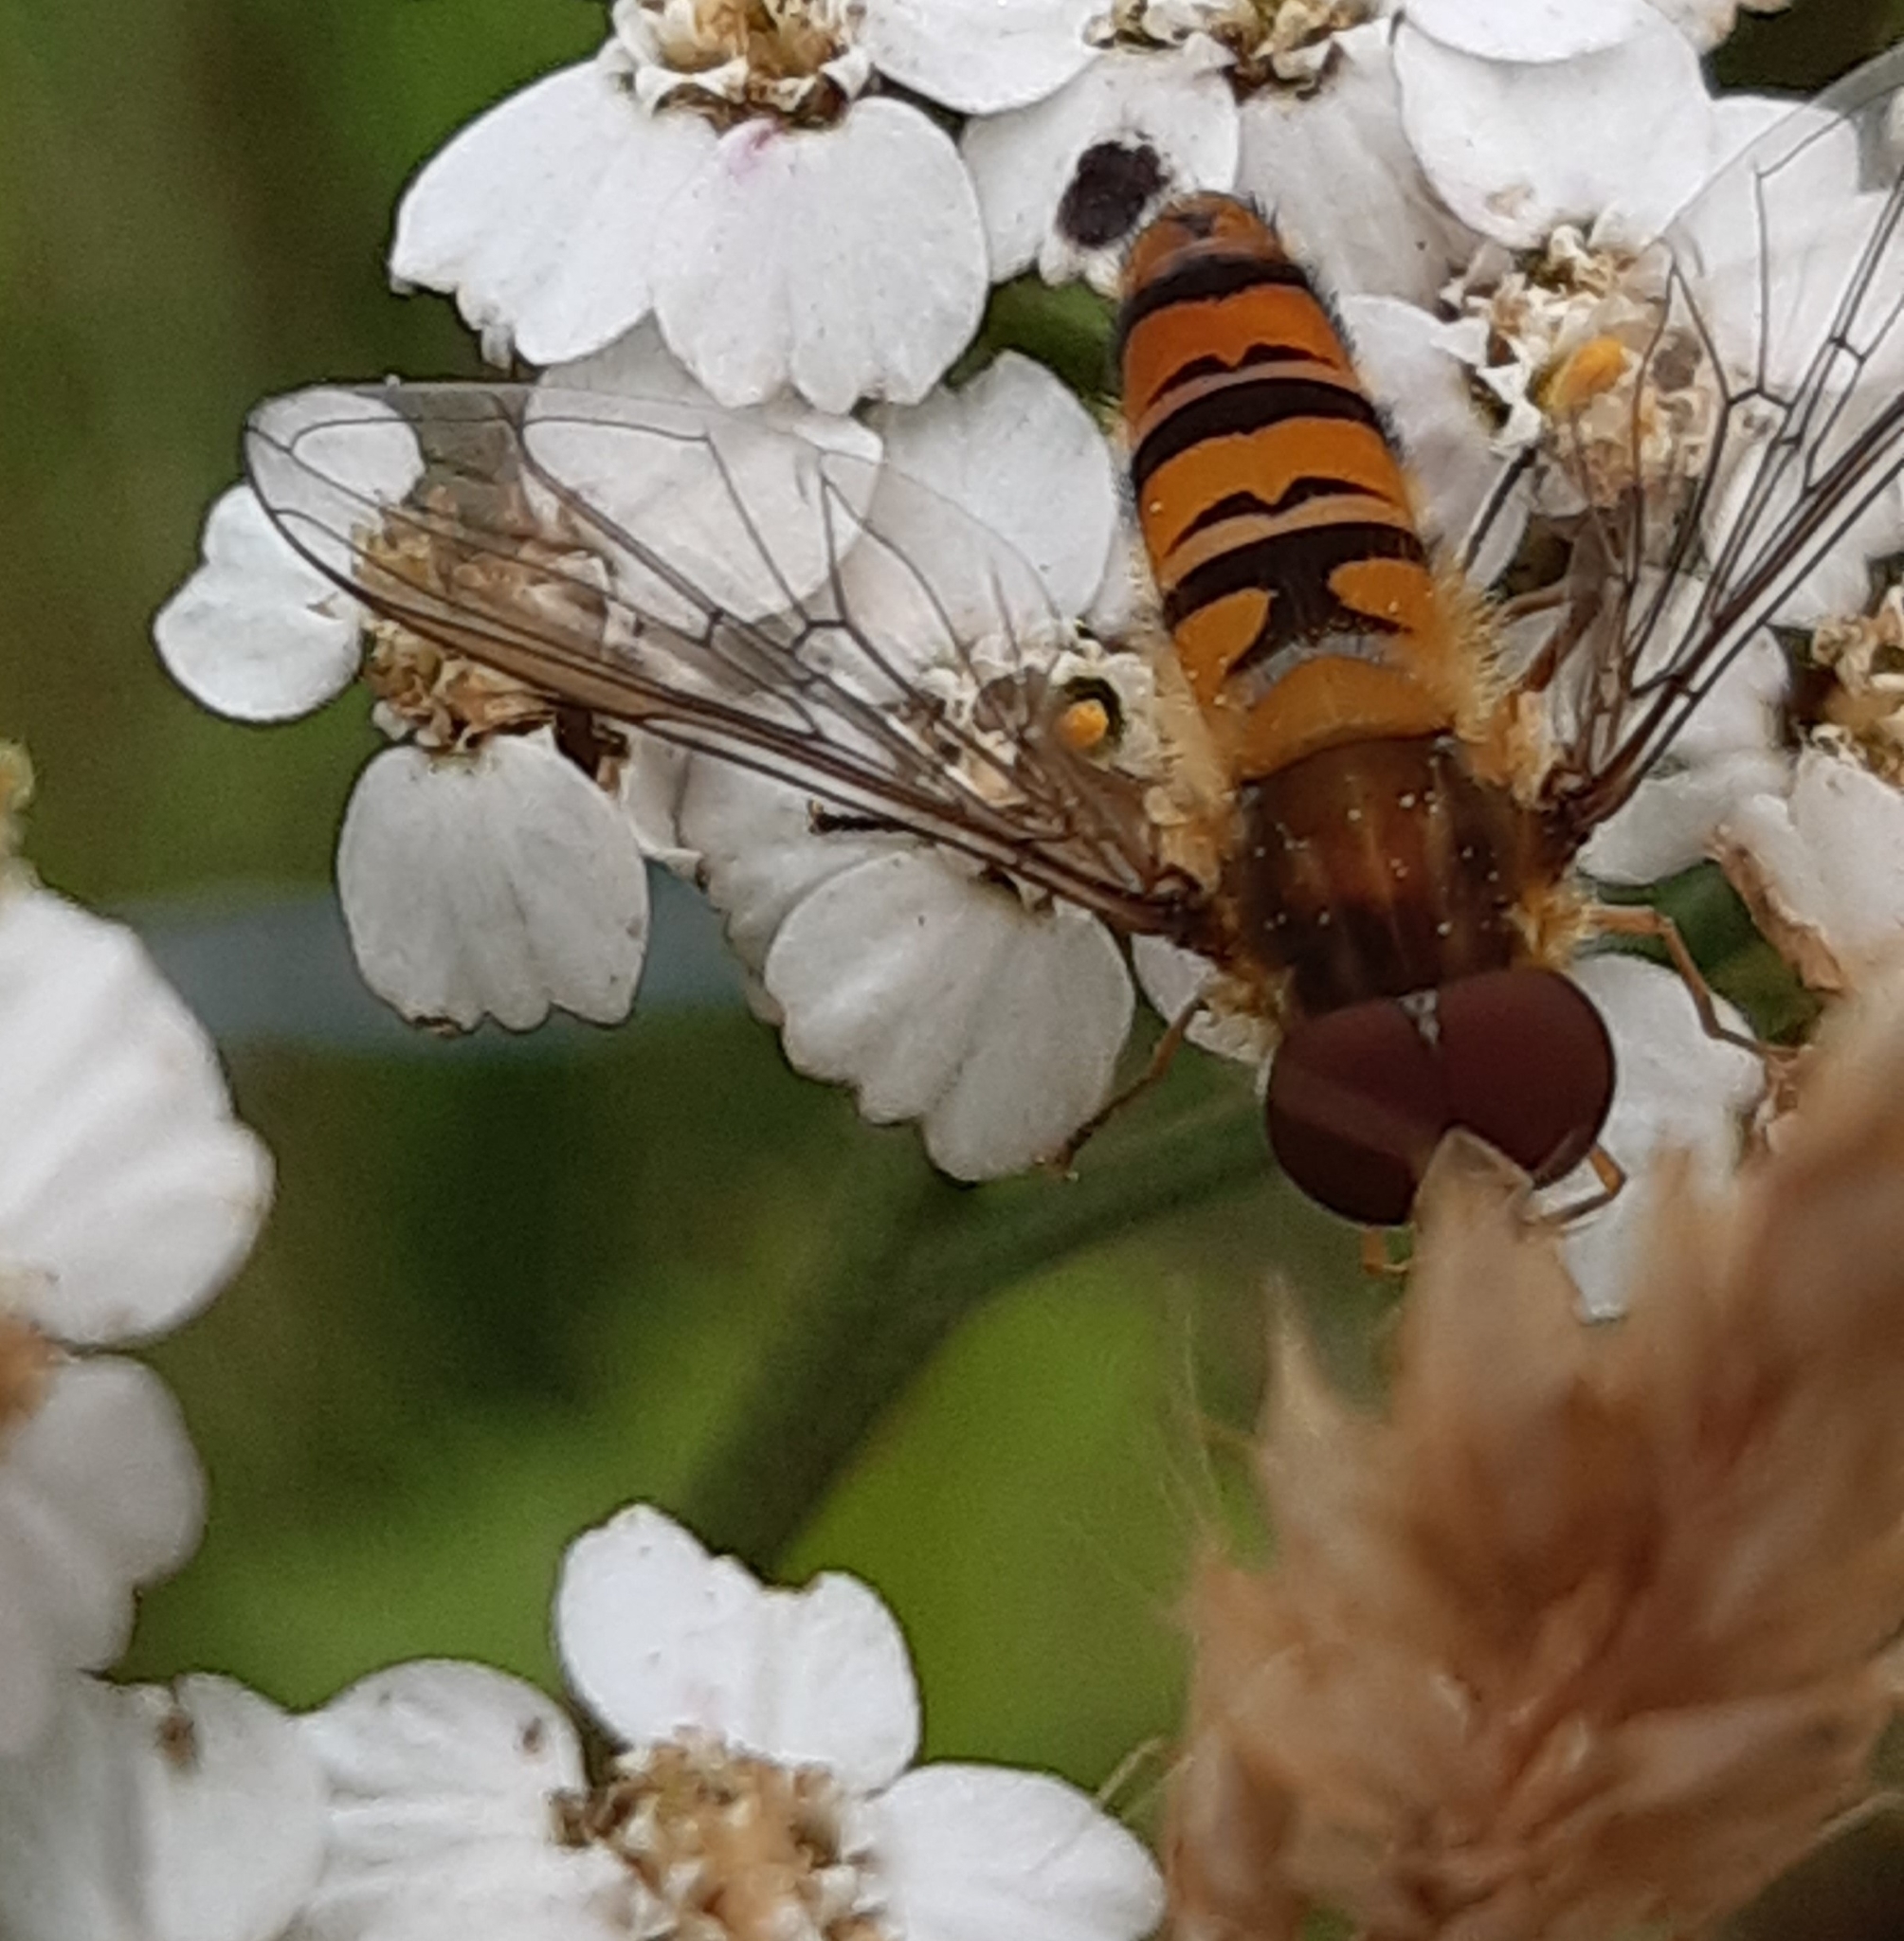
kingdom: Animalia
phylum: Arthropoda
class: Insecta
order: Diptera
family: Syrphidae
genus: Episyrphus
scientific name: Episyrphus balteatus
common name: Marmalade hoverfly
